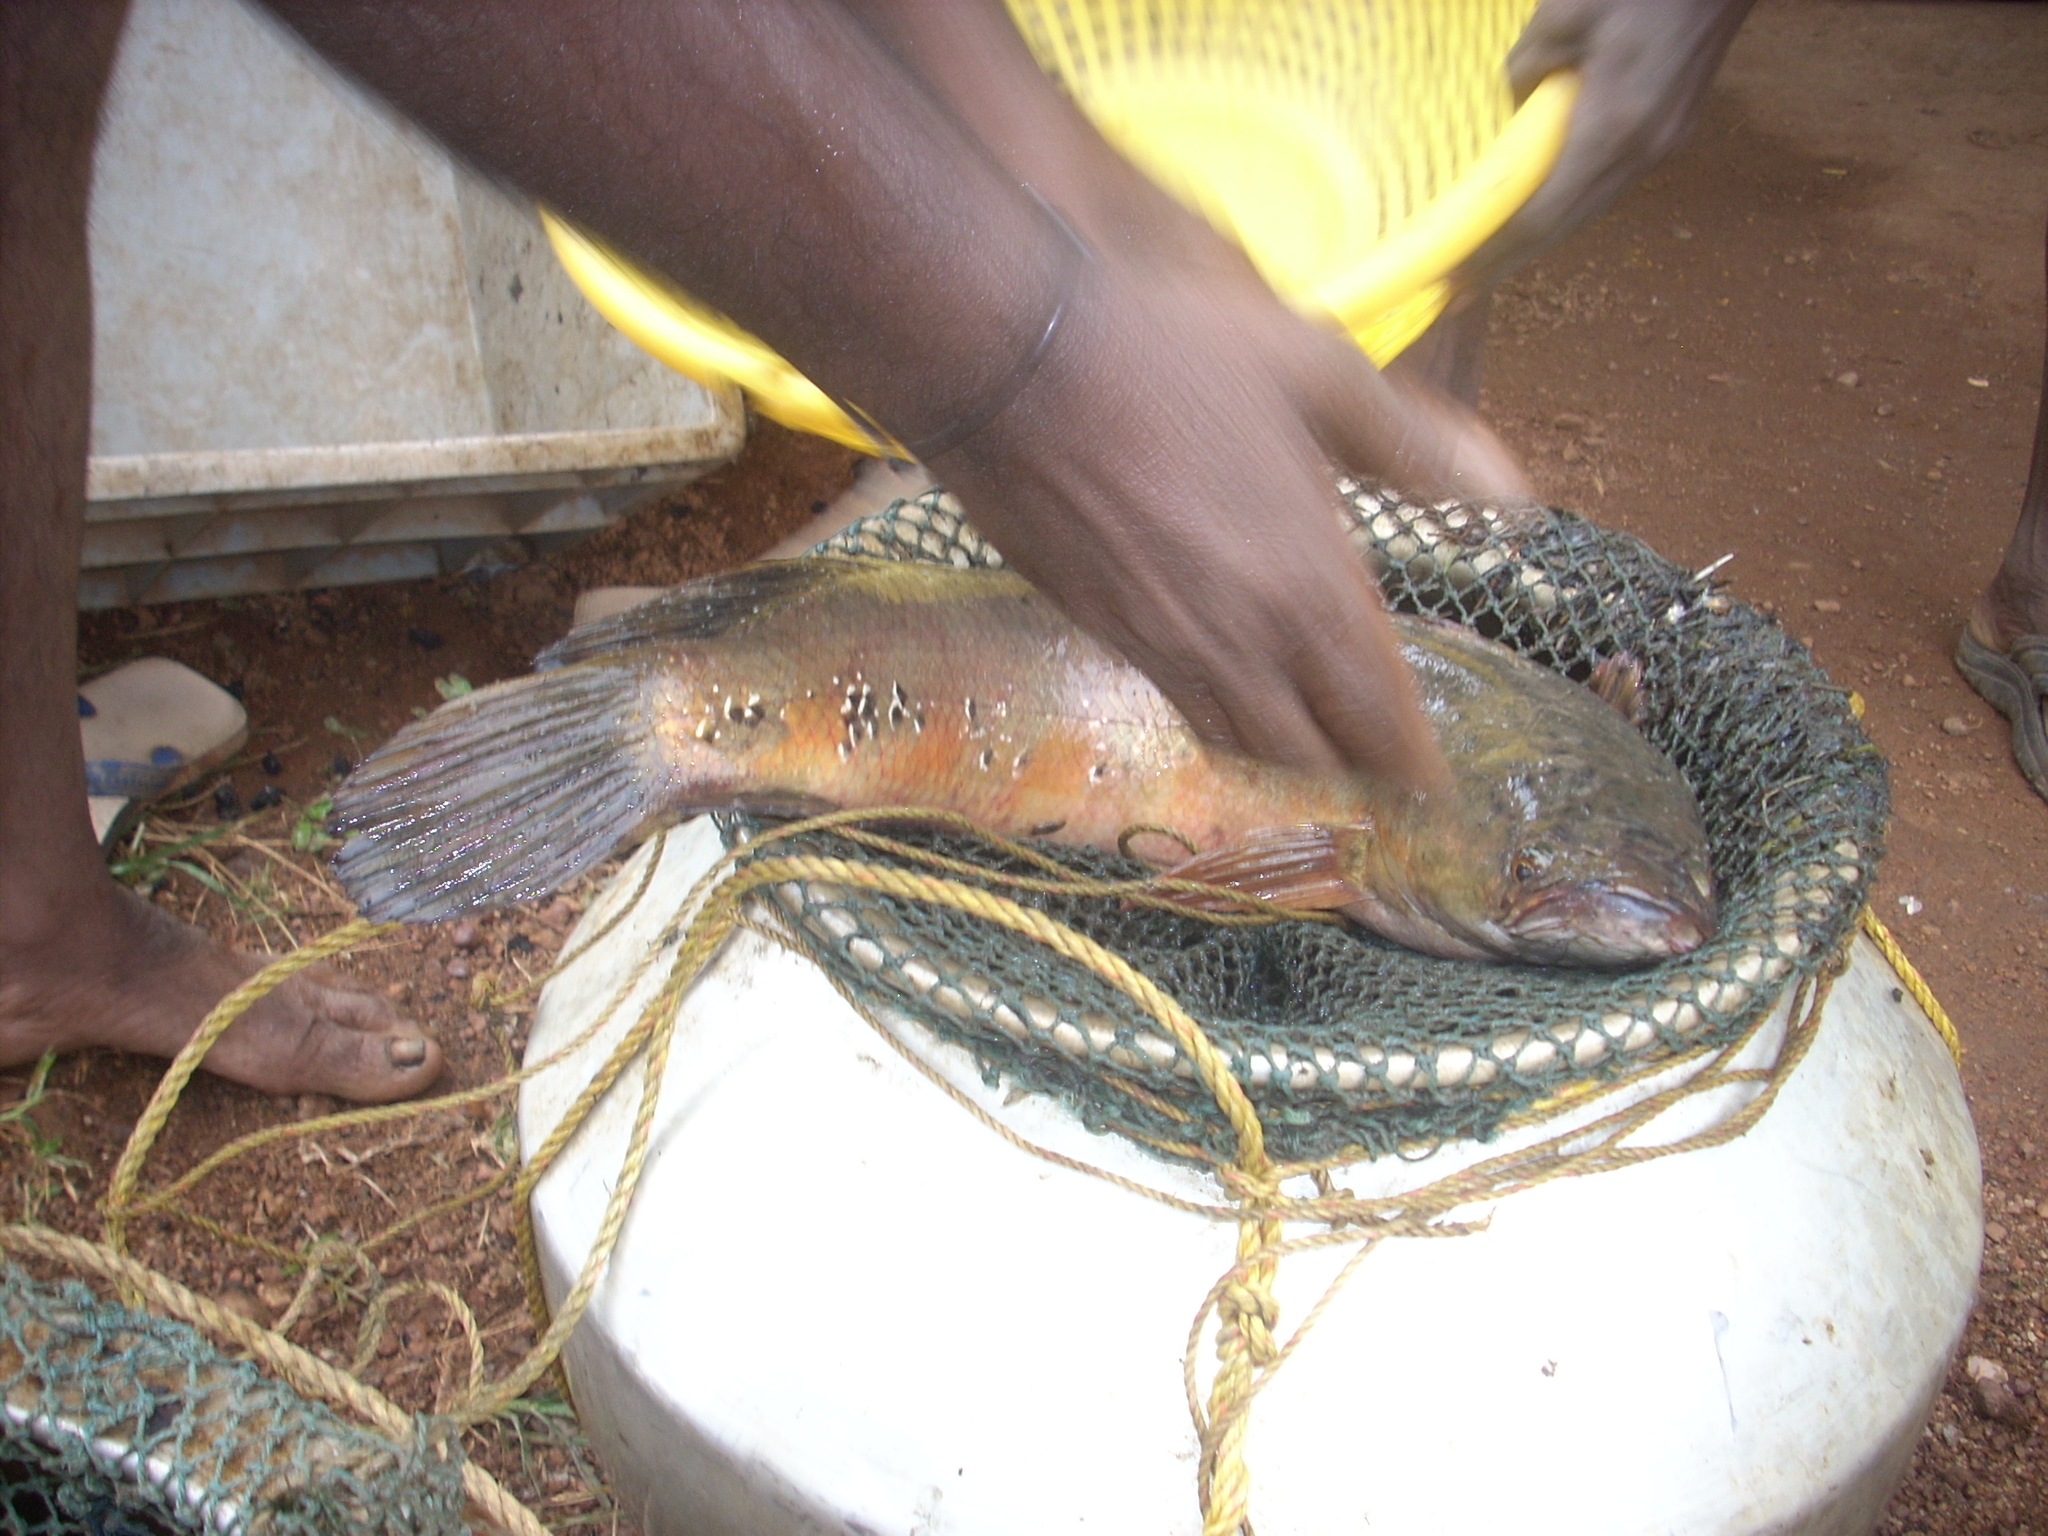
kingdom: Animalia
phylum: Chordata
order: Perciformes
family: Channidae
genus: Channa
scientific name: Channa marulius
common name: Giant snakehead
